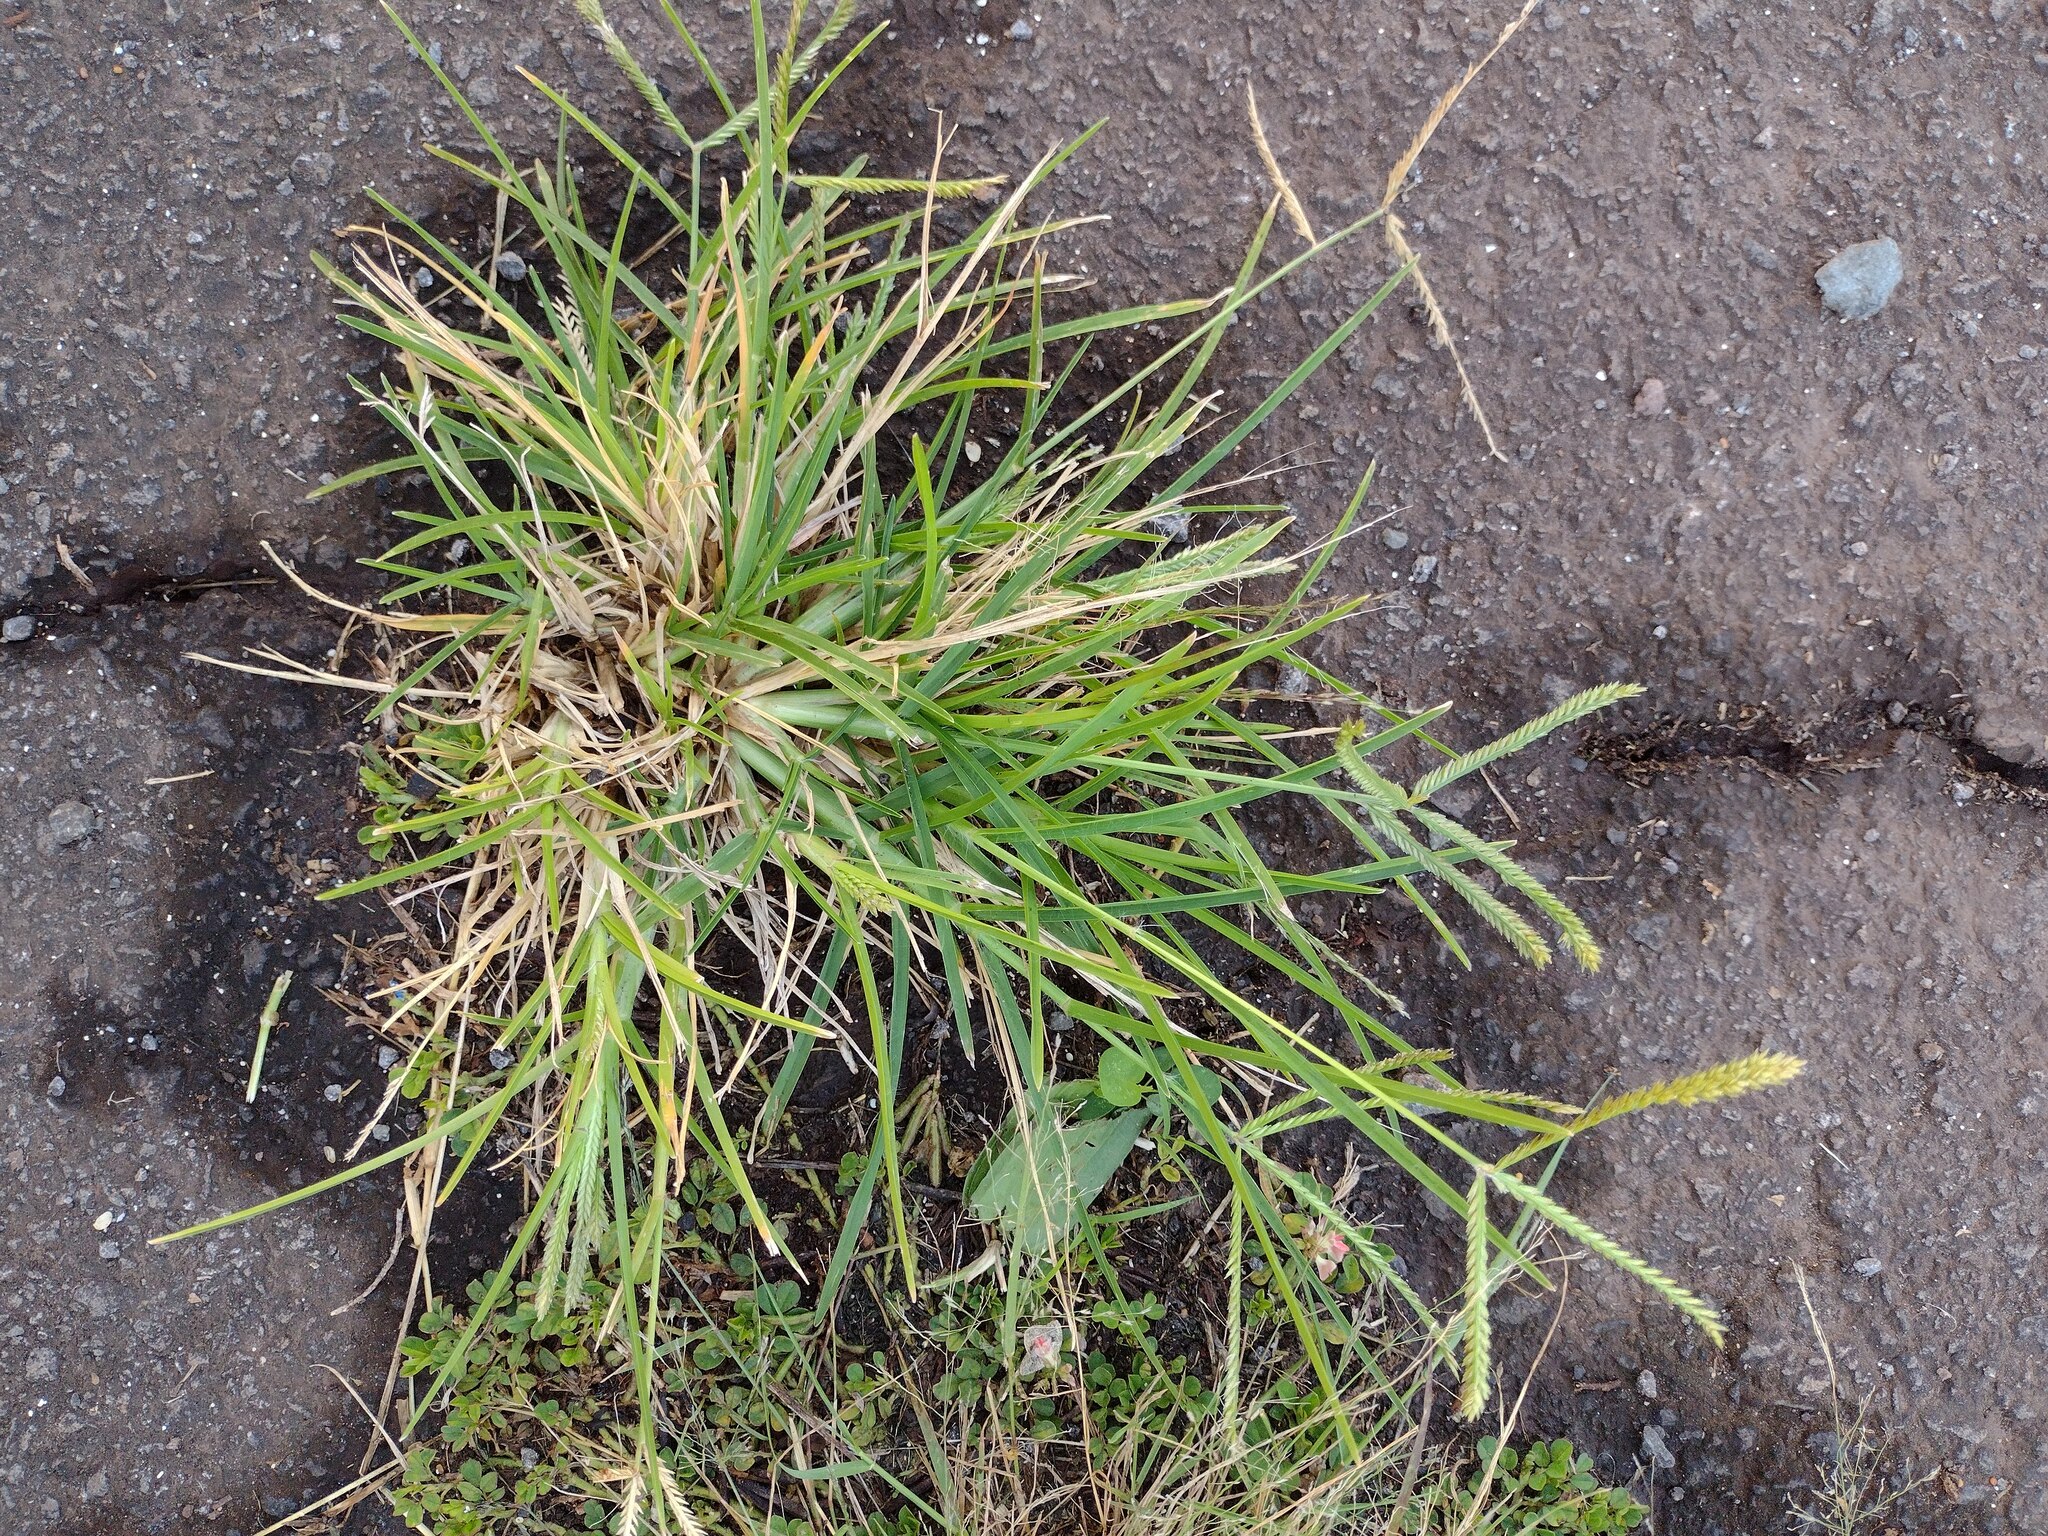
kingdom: Plantae
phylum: Tracheophyta
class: Liliopsida
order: Poales
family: Poaceae
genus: Eleusine
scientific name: Eleusine indica
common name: Yard-grass
